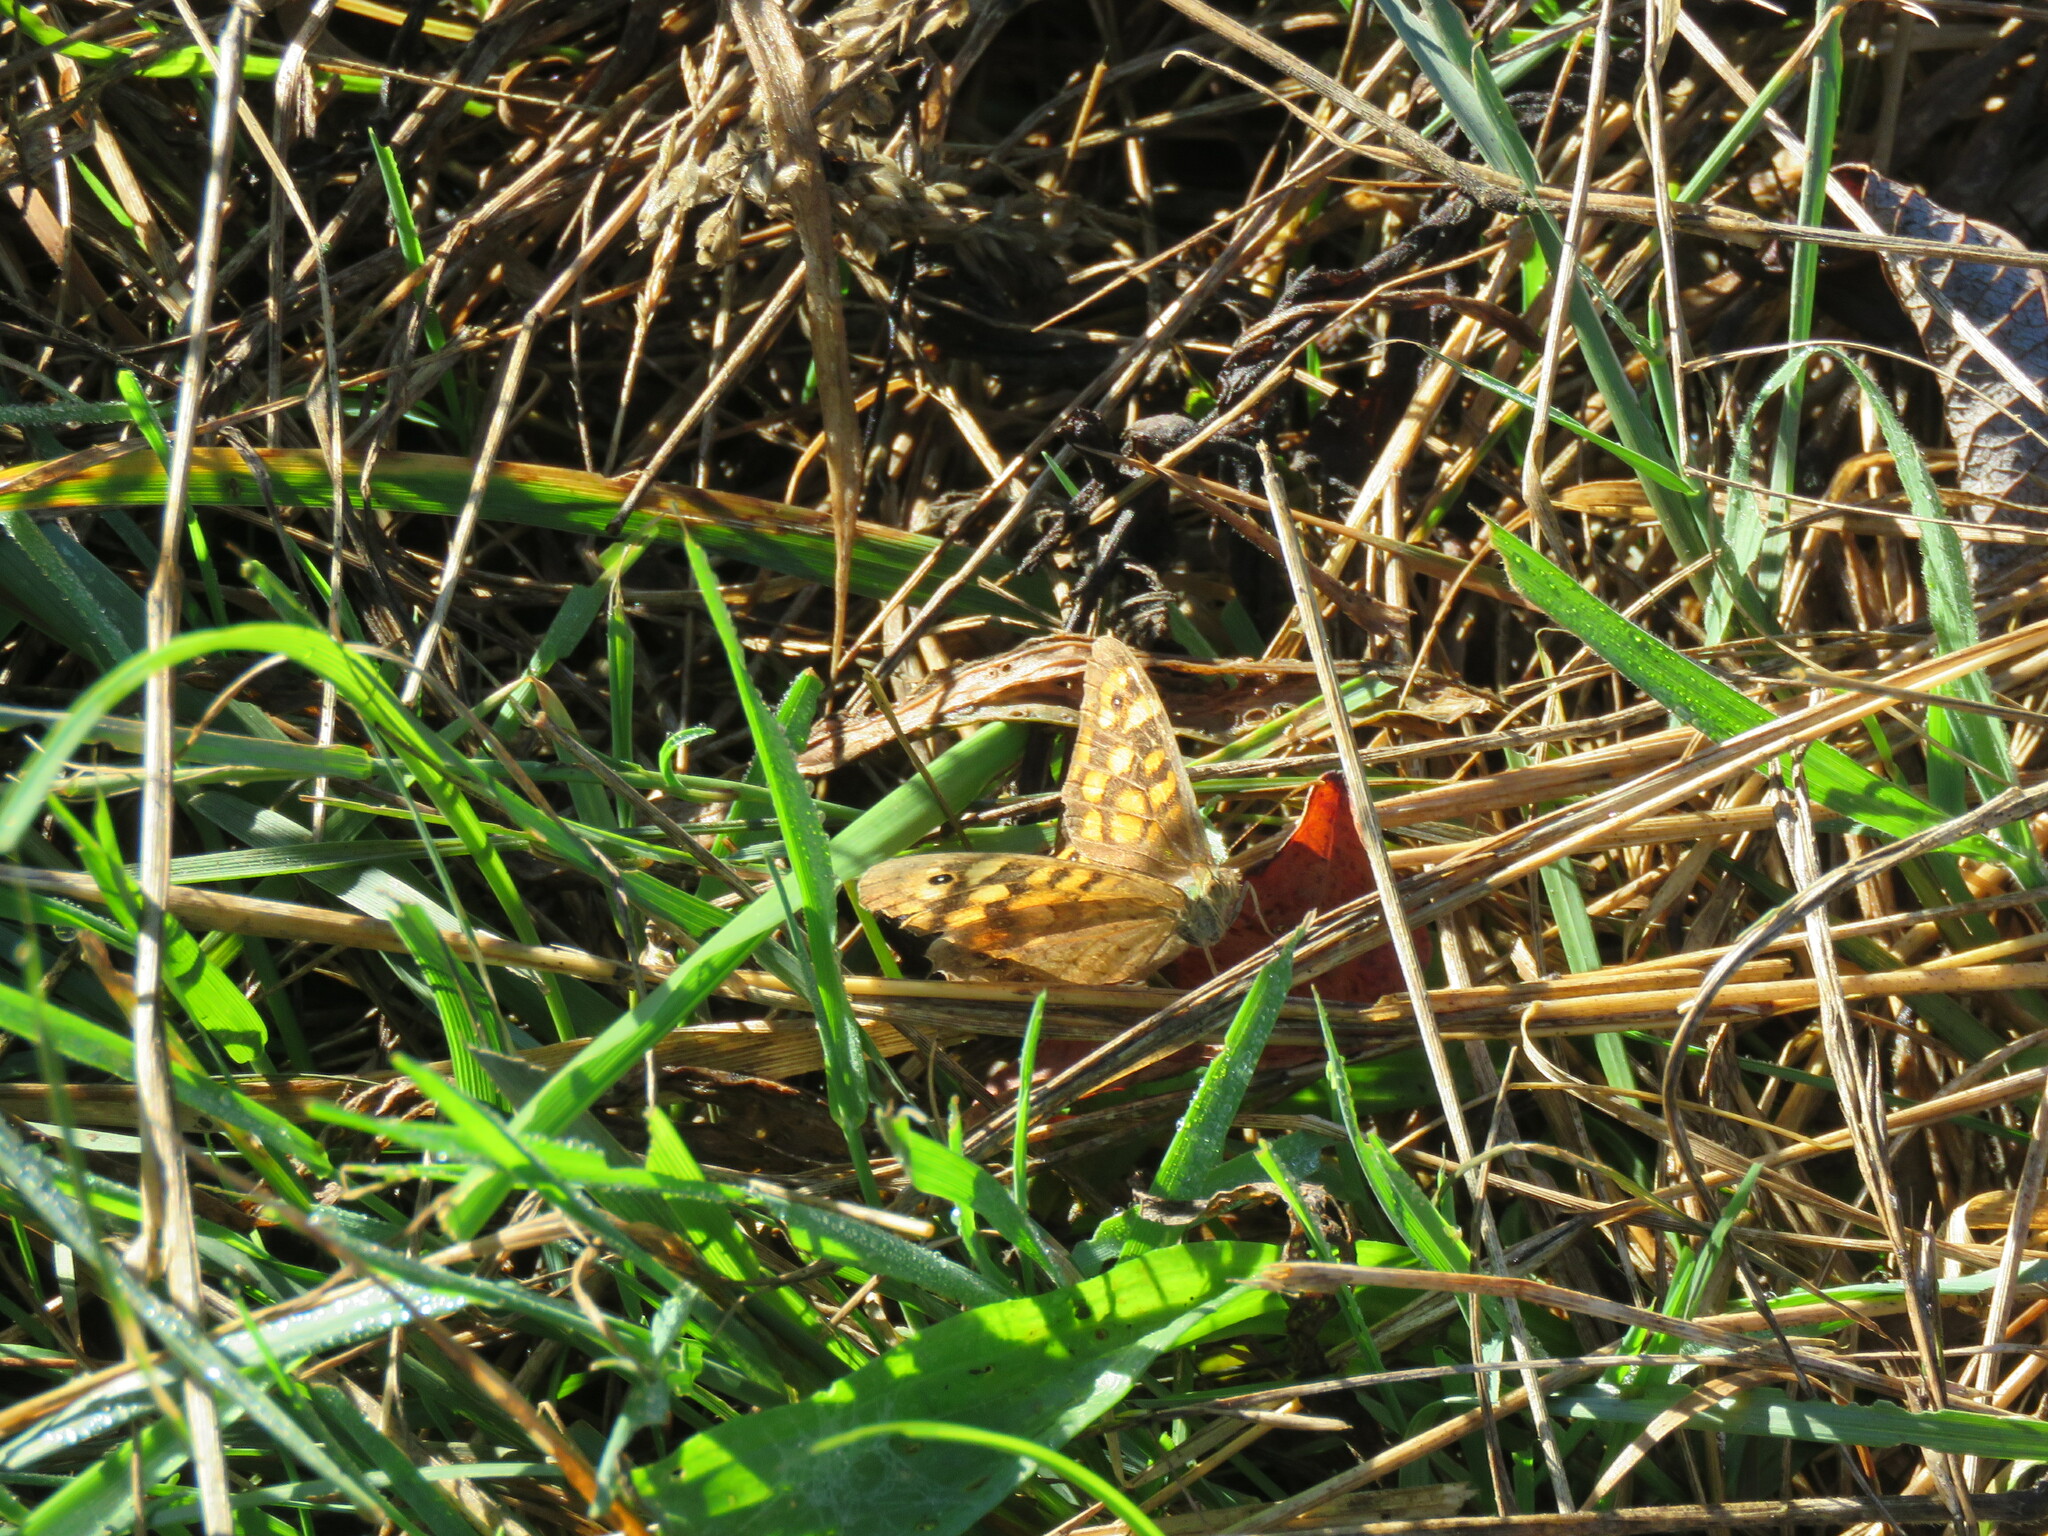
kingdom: Animalia
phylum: Arthropoda
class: Insecta
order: Lepidoptera
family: Nymphalidae
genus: Pararge
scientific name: Pararge aegeria
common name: Speckled wood
